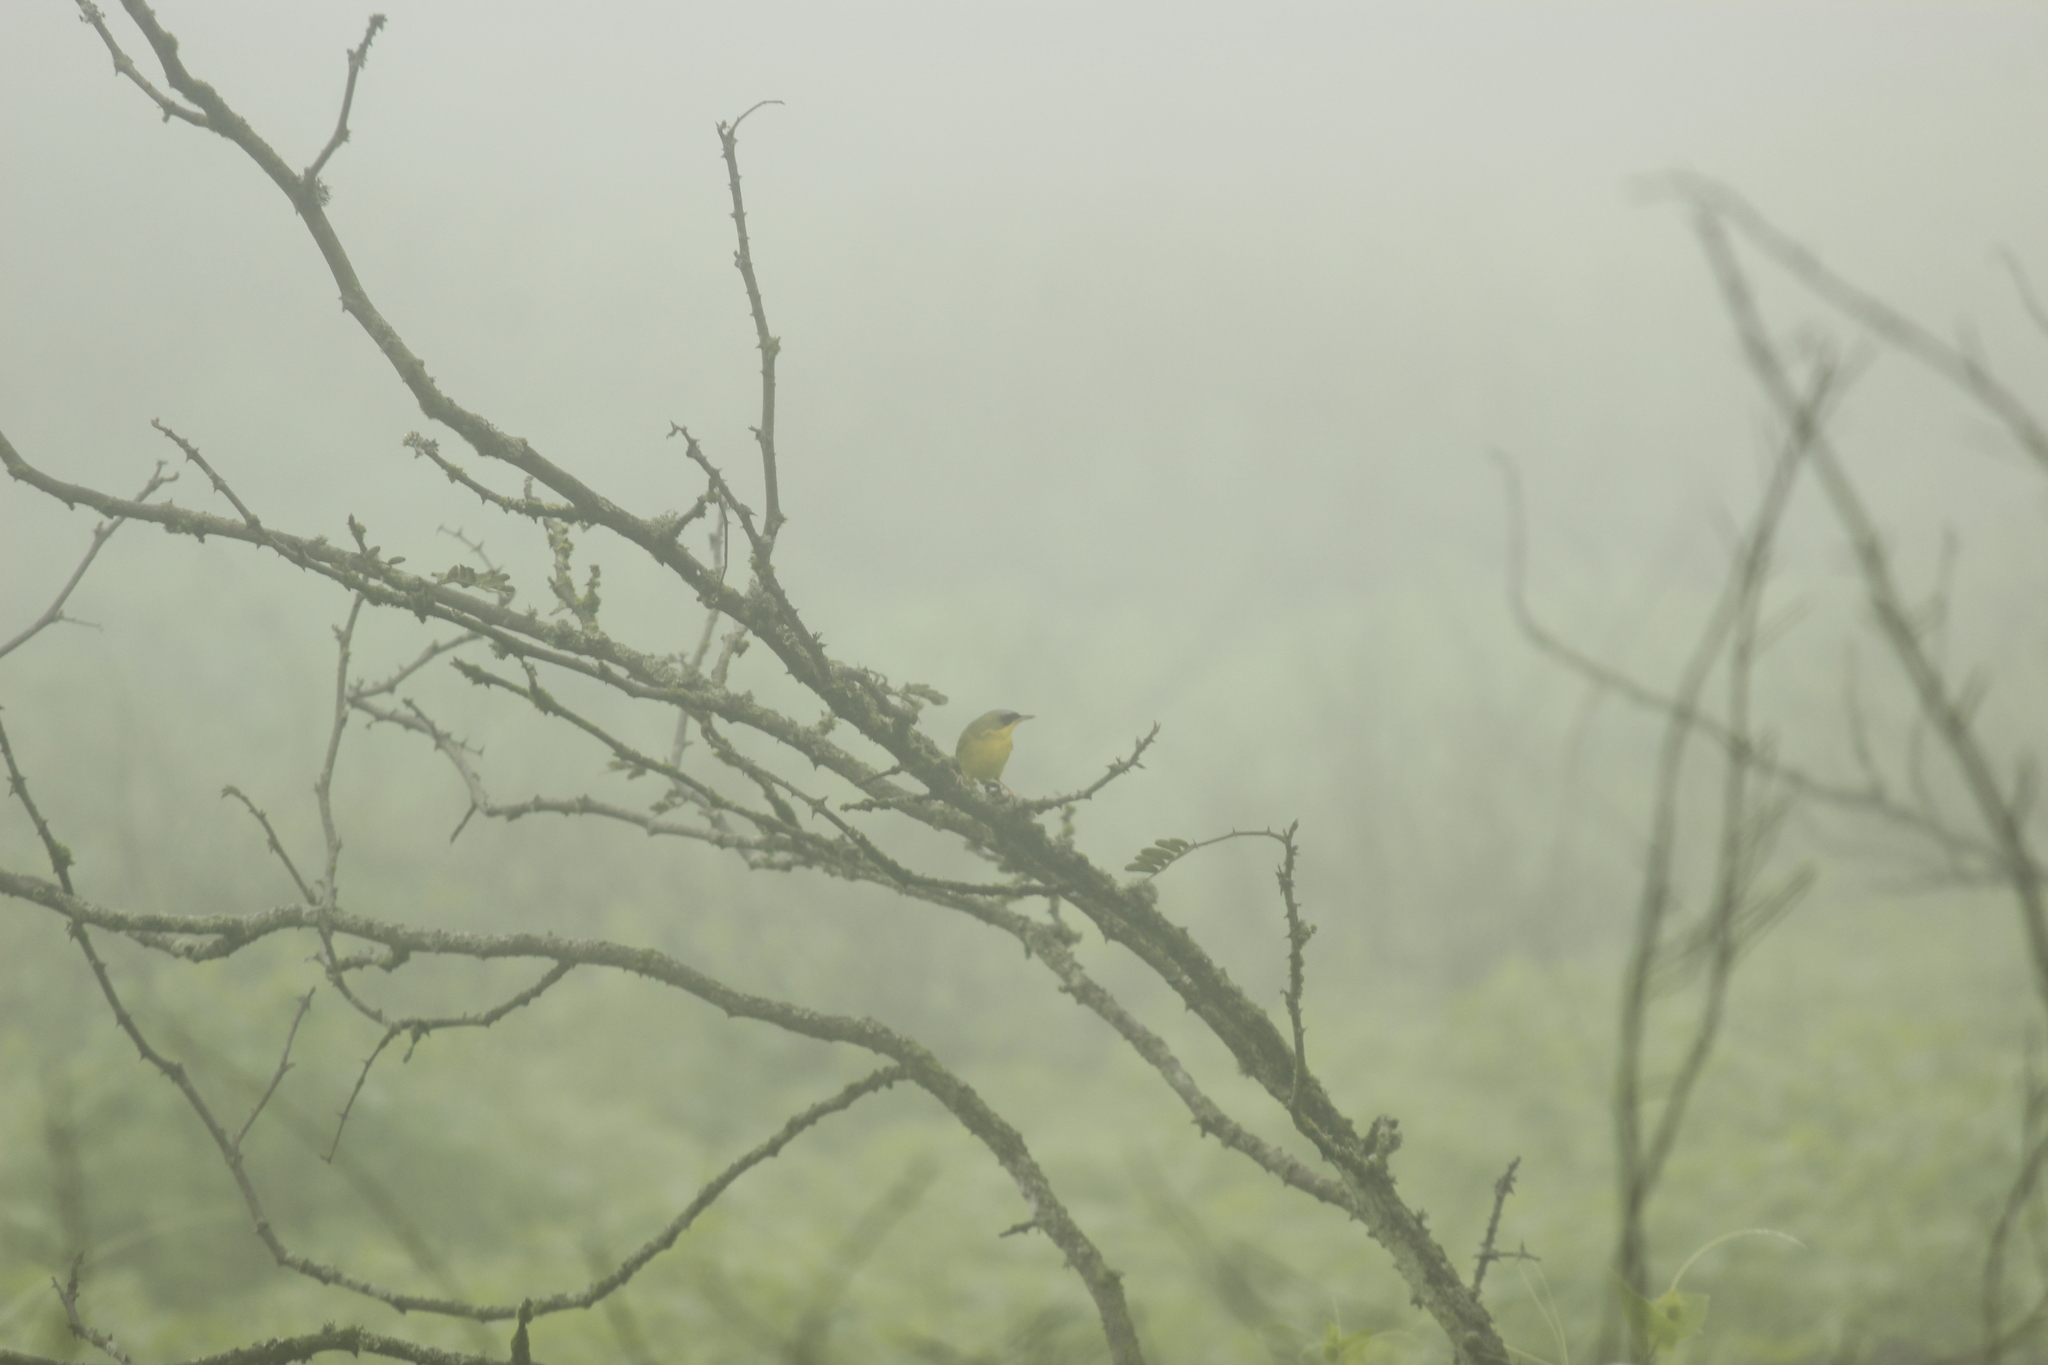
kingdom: Animalia
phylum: Chordata
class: Aves
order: Passeriformes
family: Parulidae
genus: Geothlypis
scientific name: Geothlypis auricularis
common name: Black-lored yellowthroat
